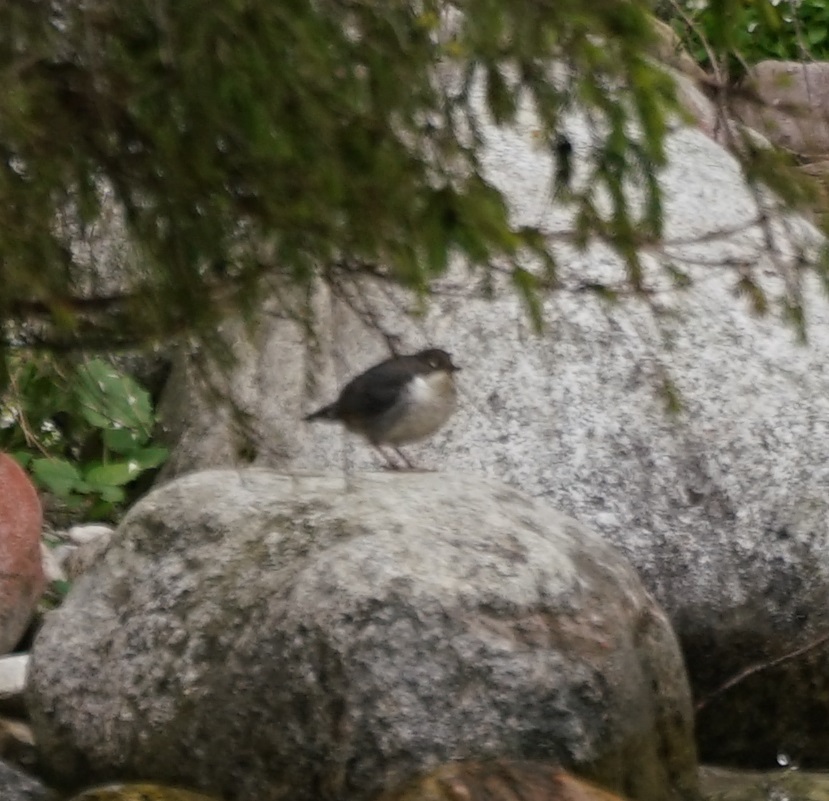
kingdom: Animalia
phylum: Chordata
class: Aves
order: Passeriformes
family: Cinclidae
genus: Cinclus
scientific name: Cinclus cinclus
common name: White-throated dipper
